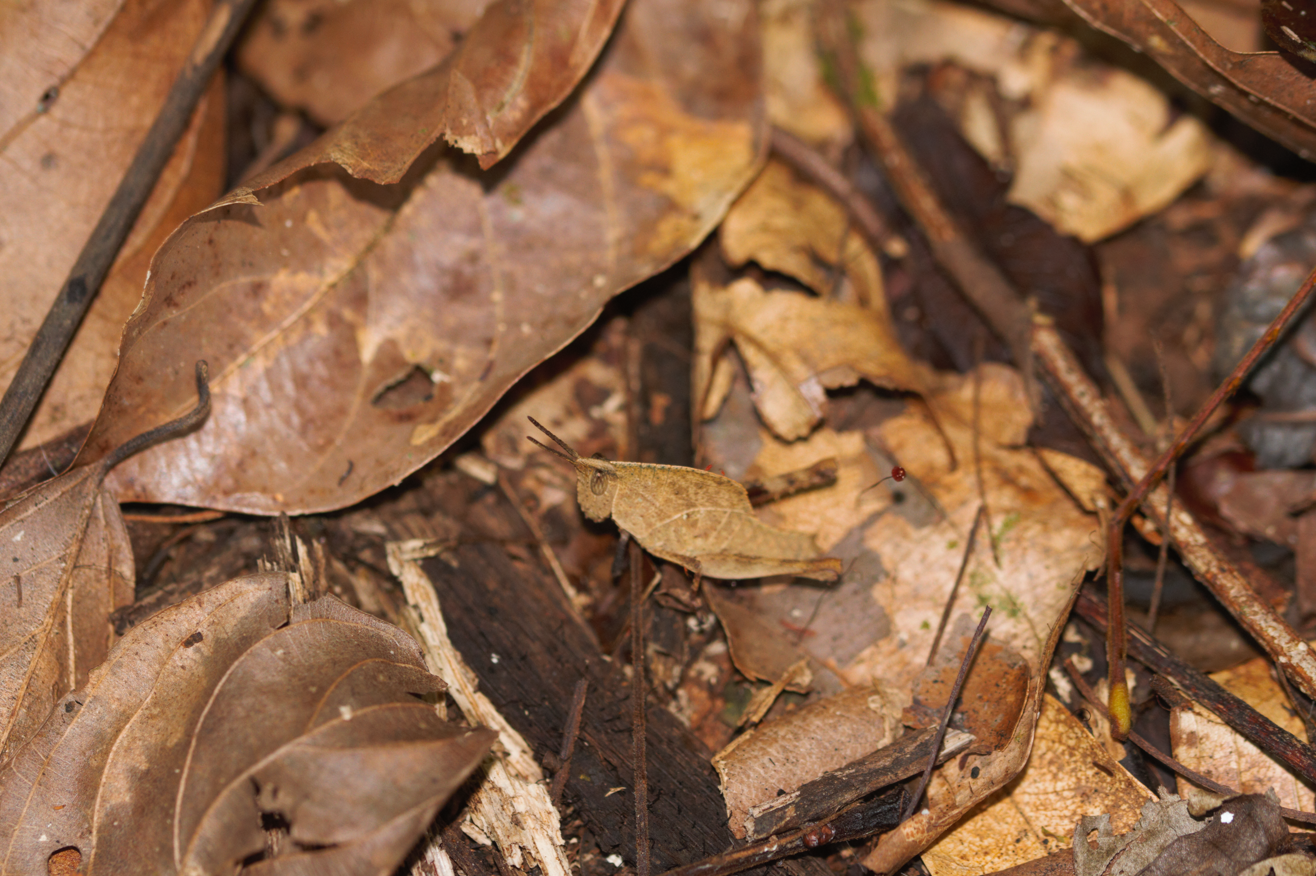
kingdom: Animalia
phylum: Arthropoda
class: Insecta
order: Orthoptera
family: Romaleidae
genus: Colpolopha
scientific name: Colpolopha obsoleta
